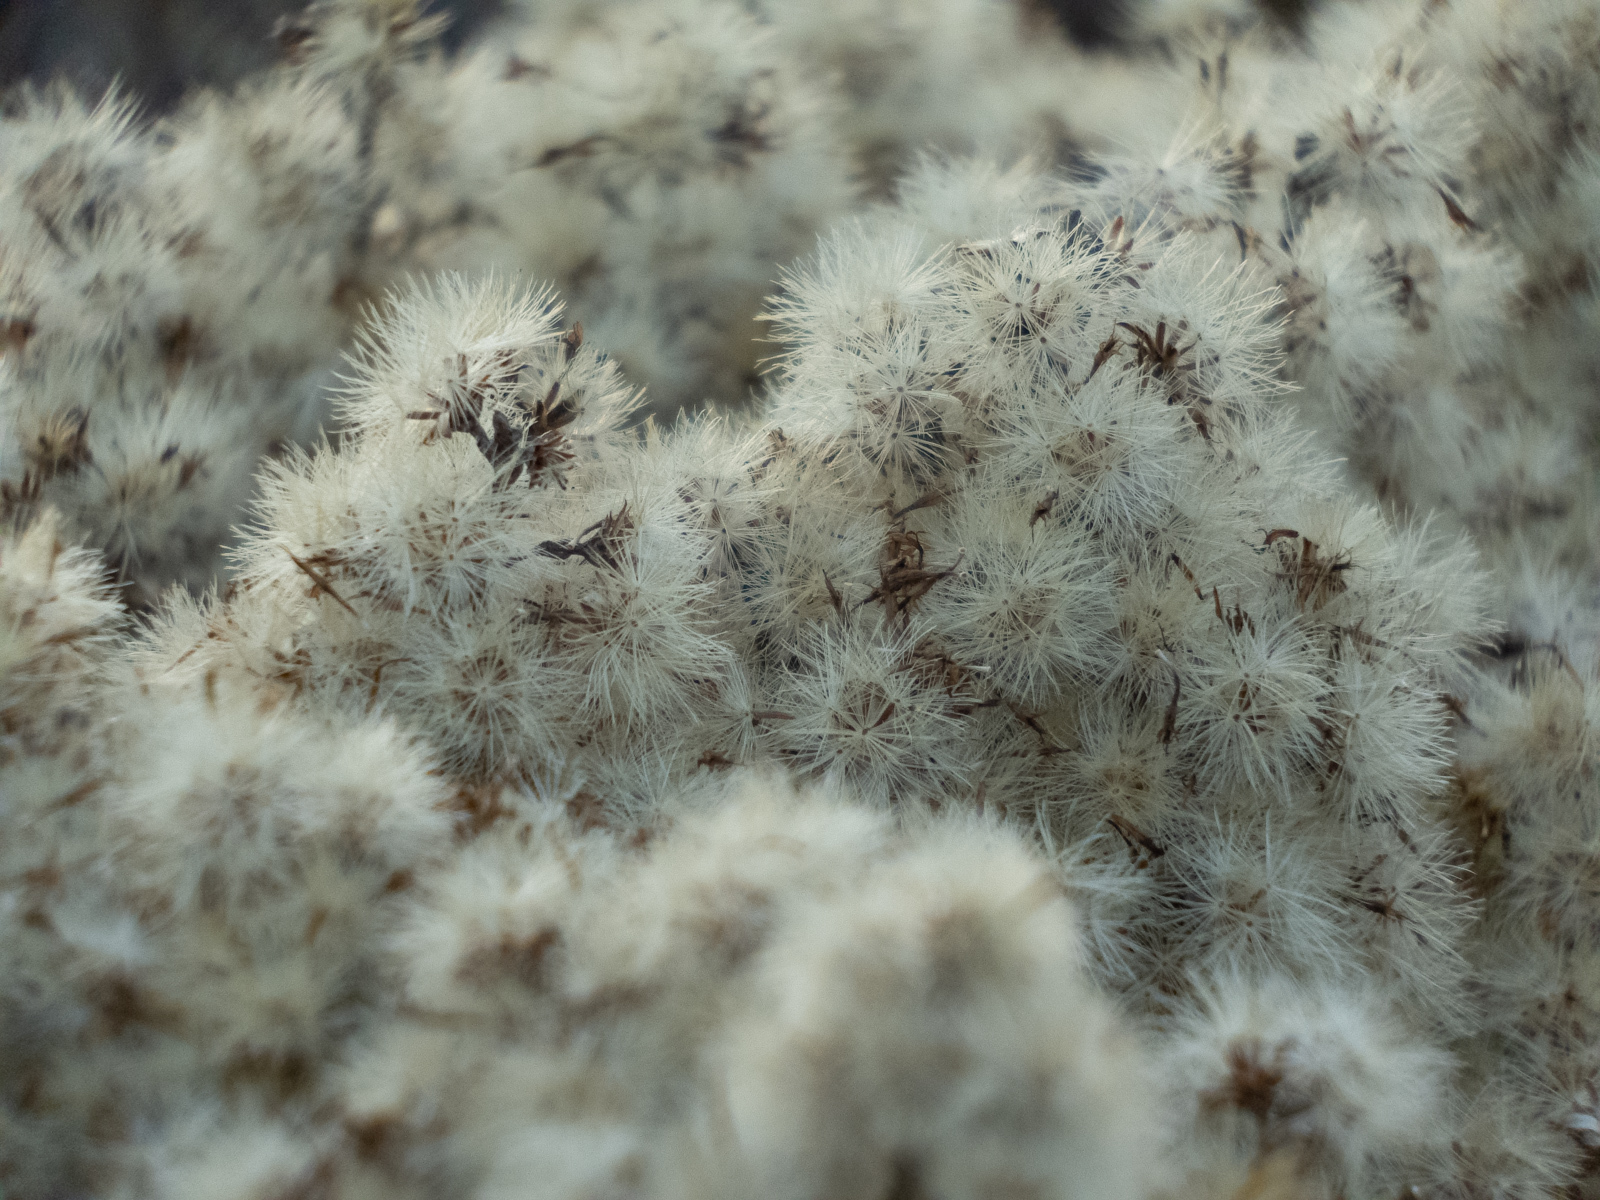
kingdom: Plantae
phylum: Tracheophyta
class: Magnoliopsida
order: Asterales
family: Asteraceae
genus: Ericameria
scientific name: Ericameria ericoides
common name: California goldenbush
